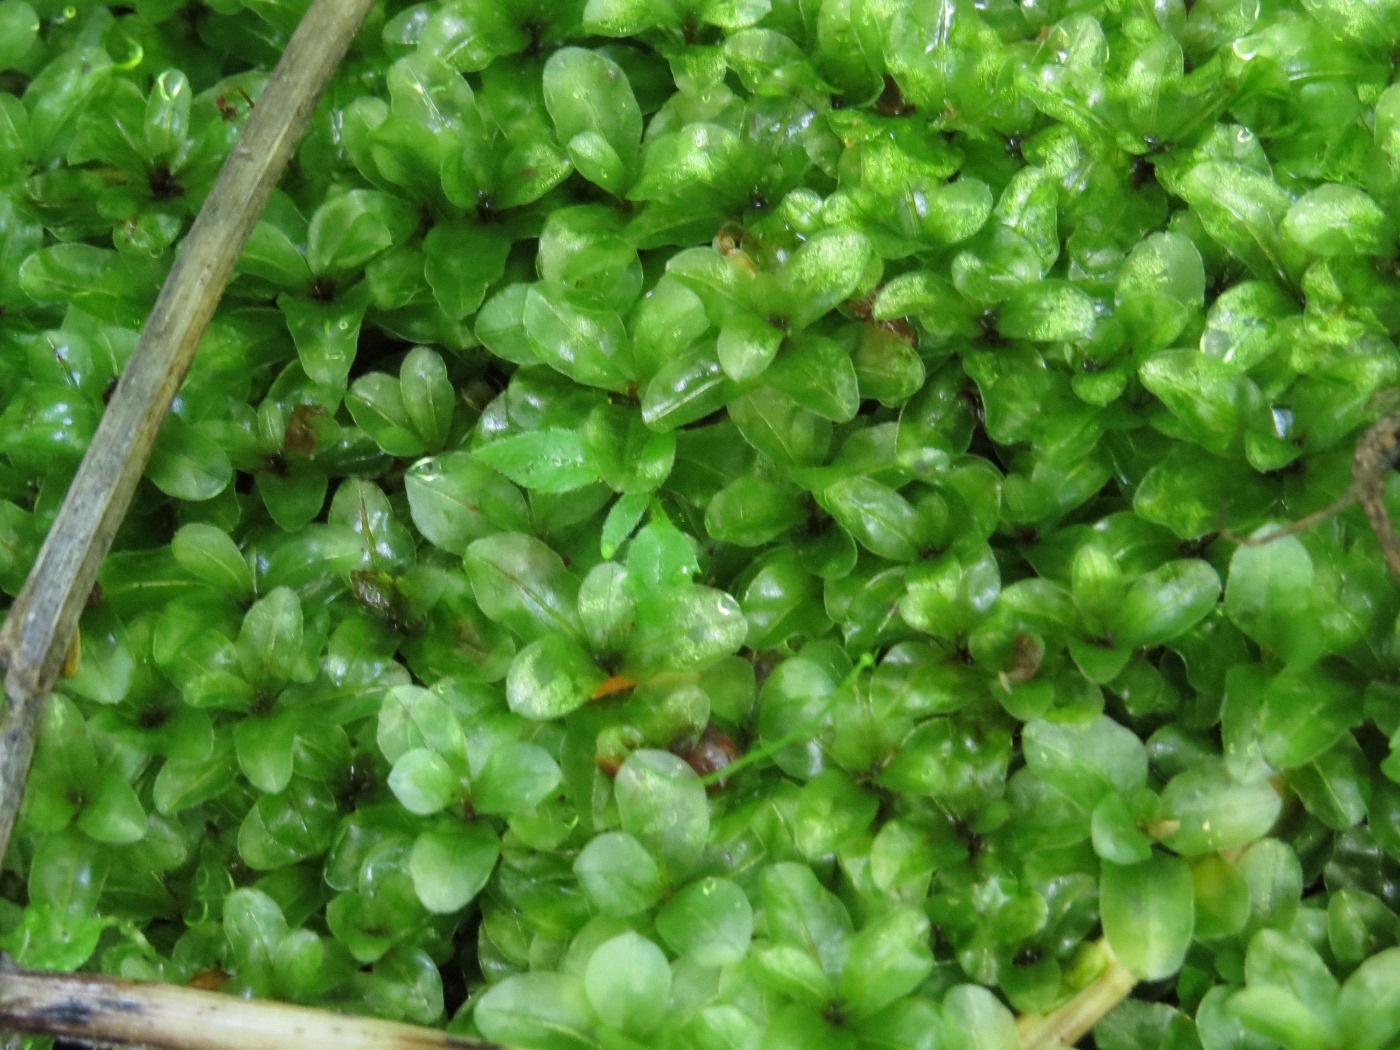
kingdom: Plantae
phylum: Bryophyta
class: Bryopsida
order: Bryales
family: Mniaceae
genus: Rhizomnium
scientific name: Rhizomnium punctatum
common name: Dotted leafy moss
